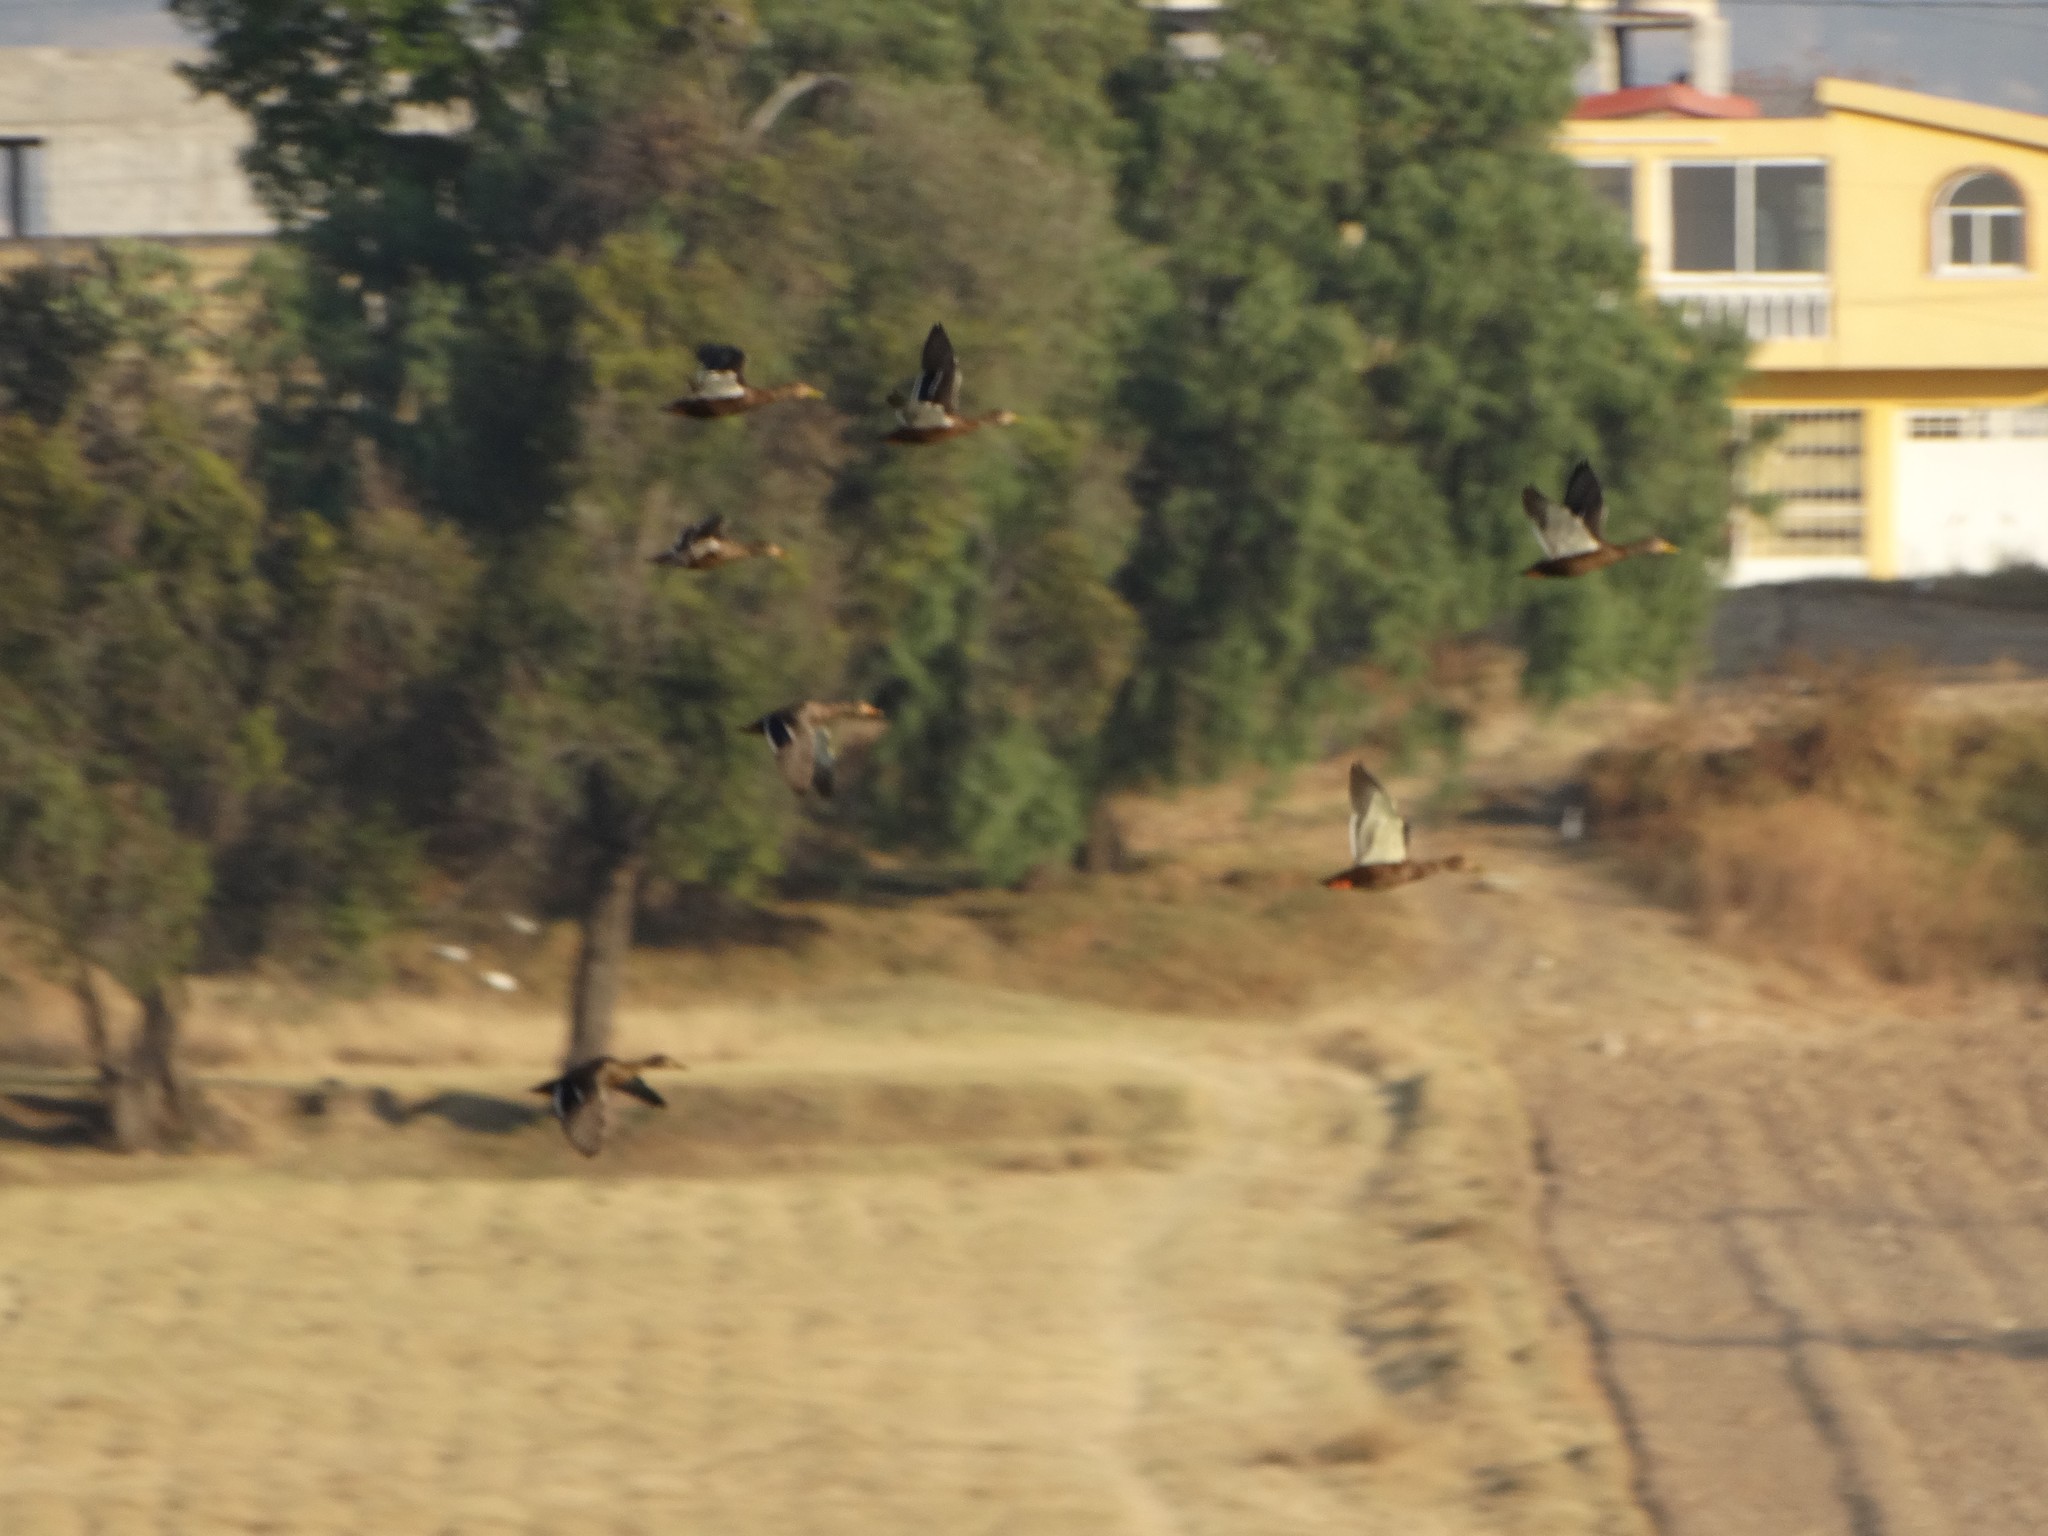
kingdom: Animalia
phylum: Chordata
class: Aves
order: Anseriformes
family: Anatidae
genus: Anas
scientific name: Anas diazi
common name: Mexican duck
